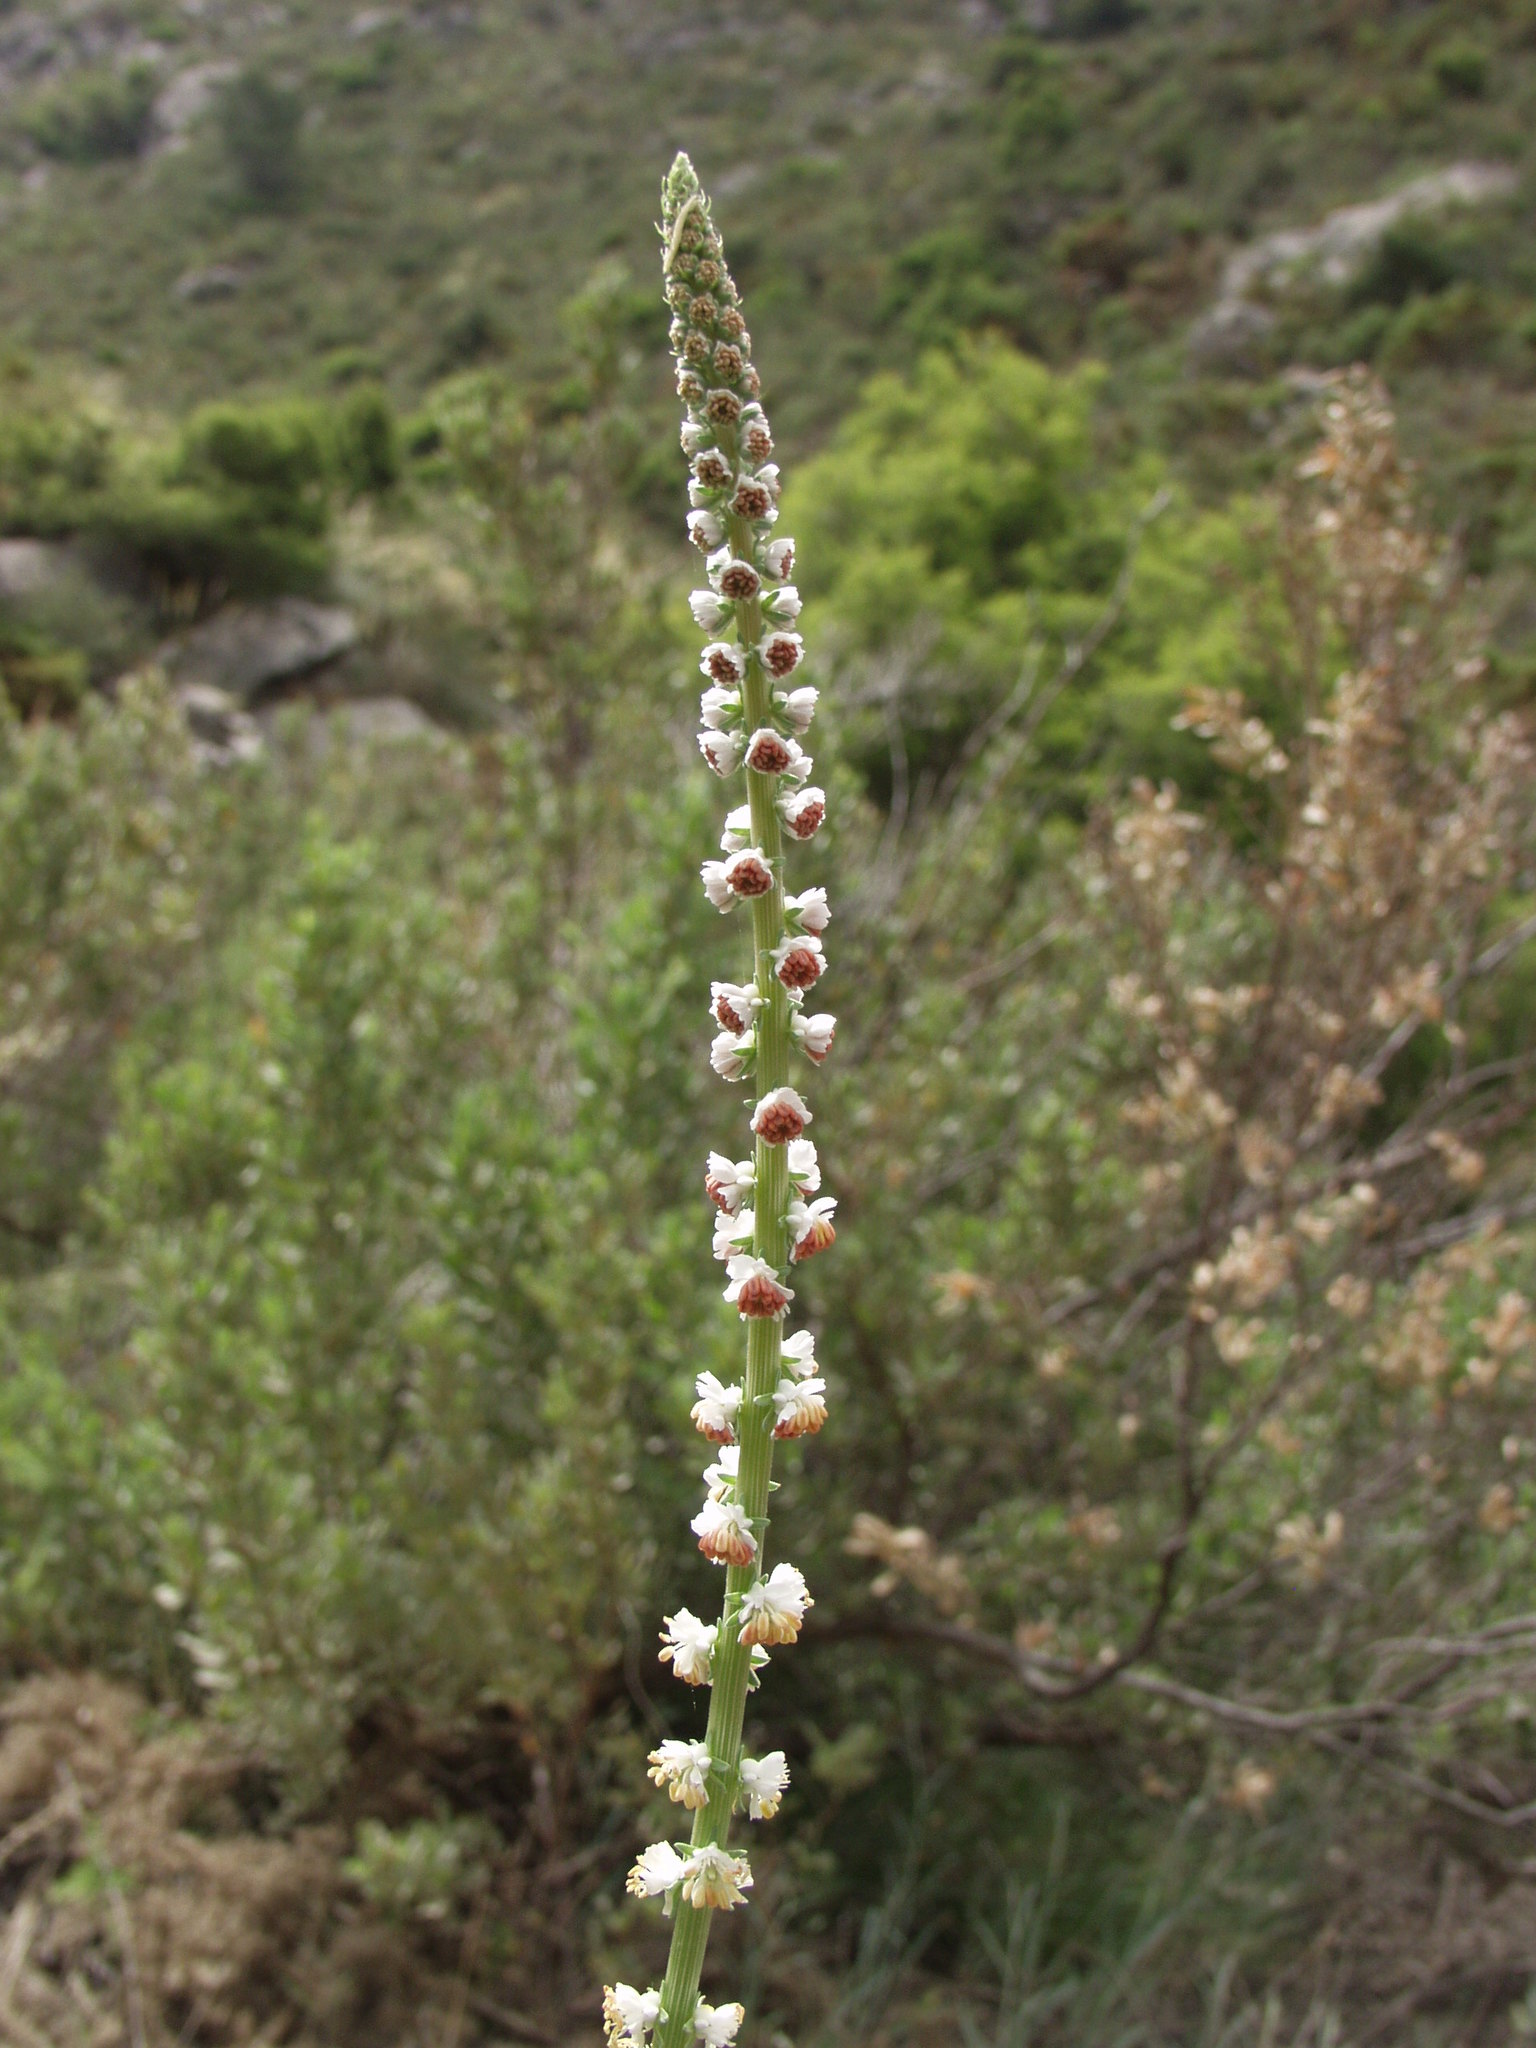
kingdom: Plantae
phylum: Tracheophyta
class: Magnoliopsida
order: Brassicales
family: Resedaceae
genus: Reseda
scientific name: Reseda barrelieri
